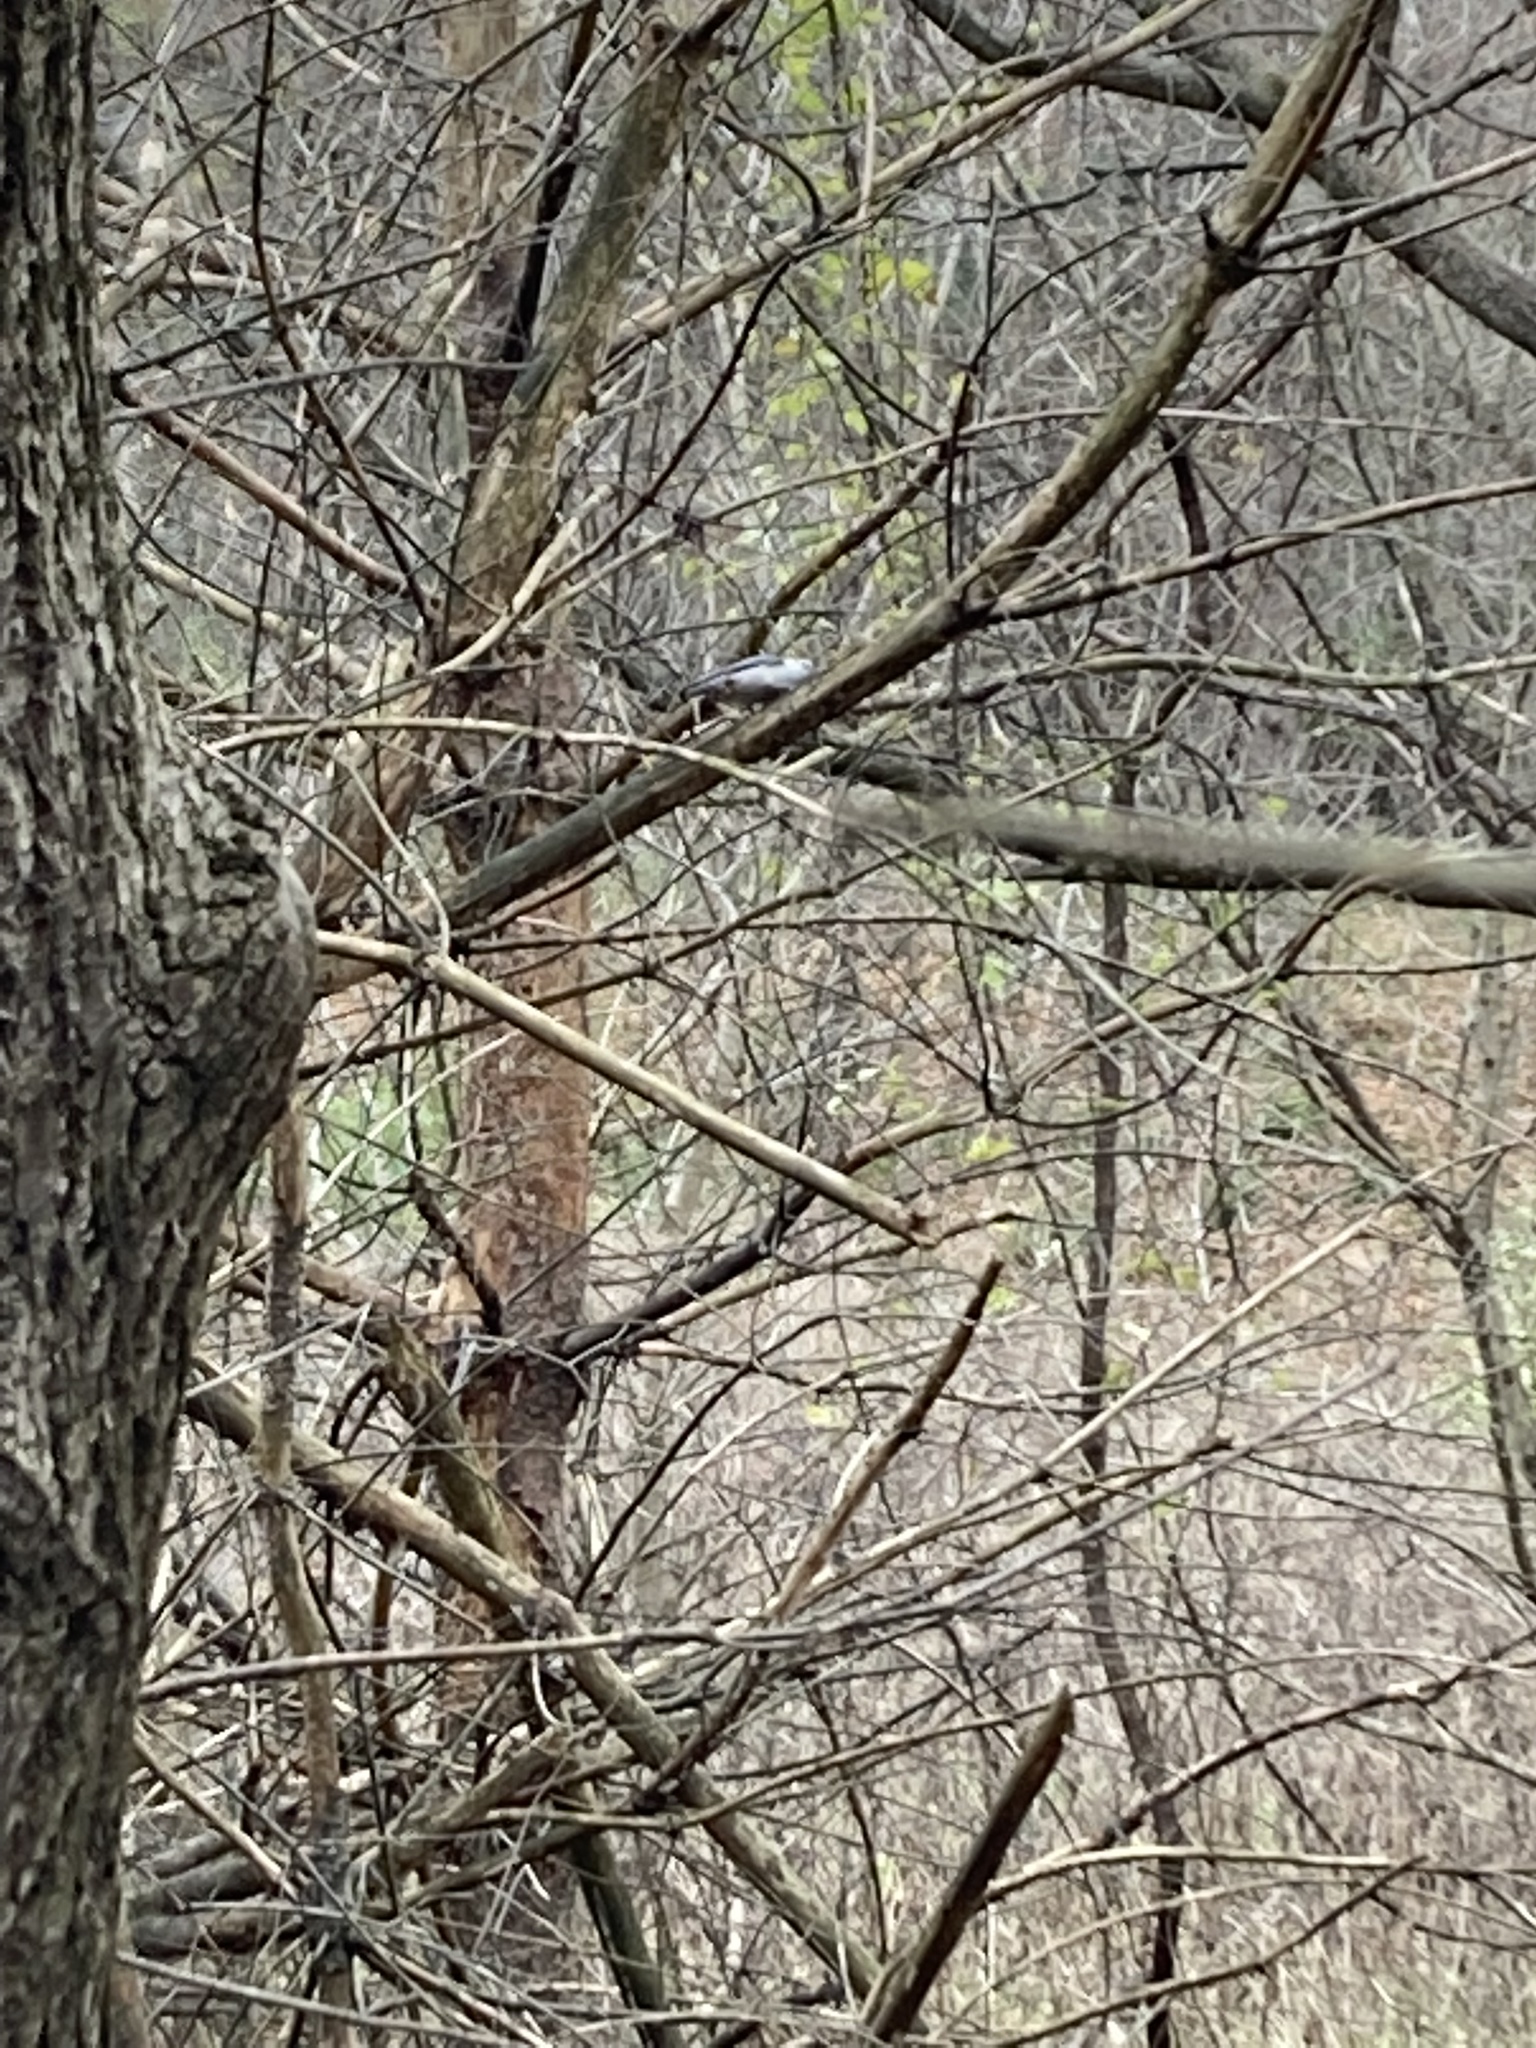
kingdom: Animalia
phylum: Chordata
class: Aves
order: Passeriformes
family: Sittidae
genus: Sitta
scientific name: Sitta carolinensis
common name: White-breasted nuthatch
